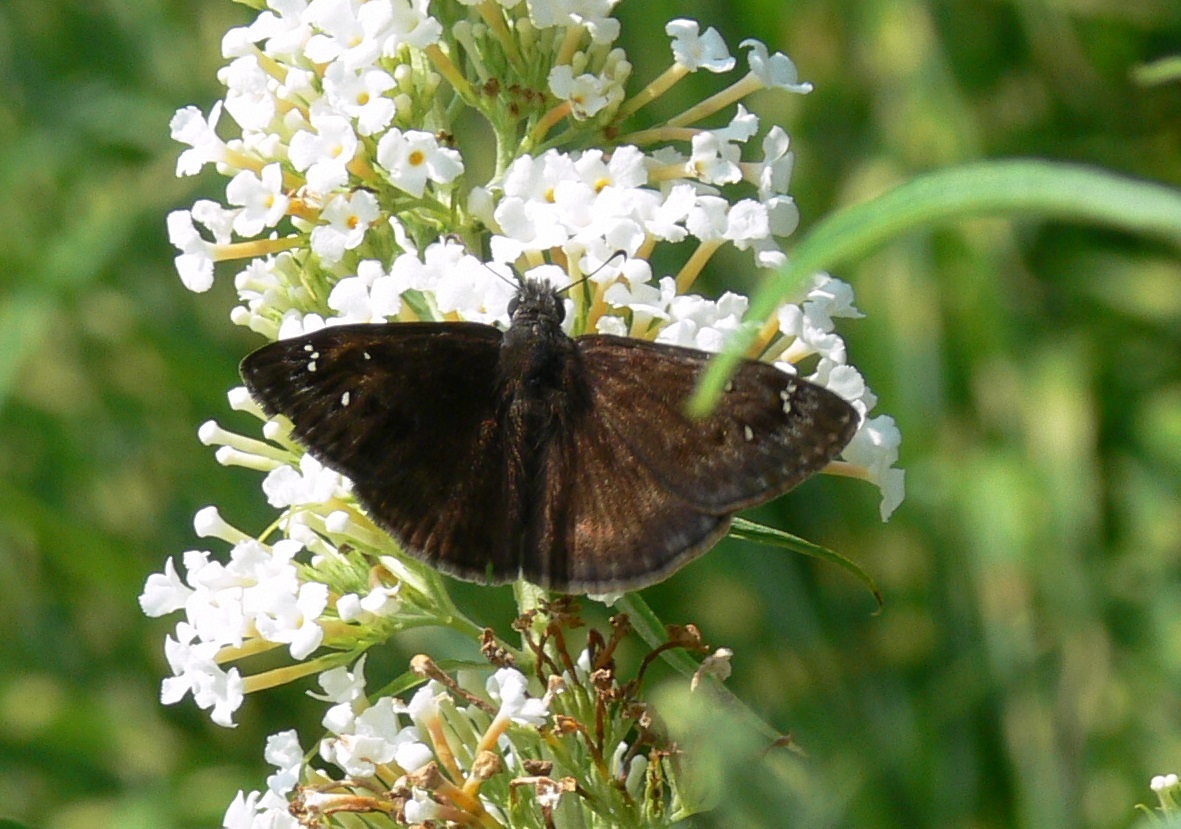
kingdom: Animalia
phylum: Arthropoda
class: Insecta
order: Lepidoptera
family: Hesperiidae
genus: Erynnis
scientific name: Erynnis horatius
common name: Horace's duskywing
